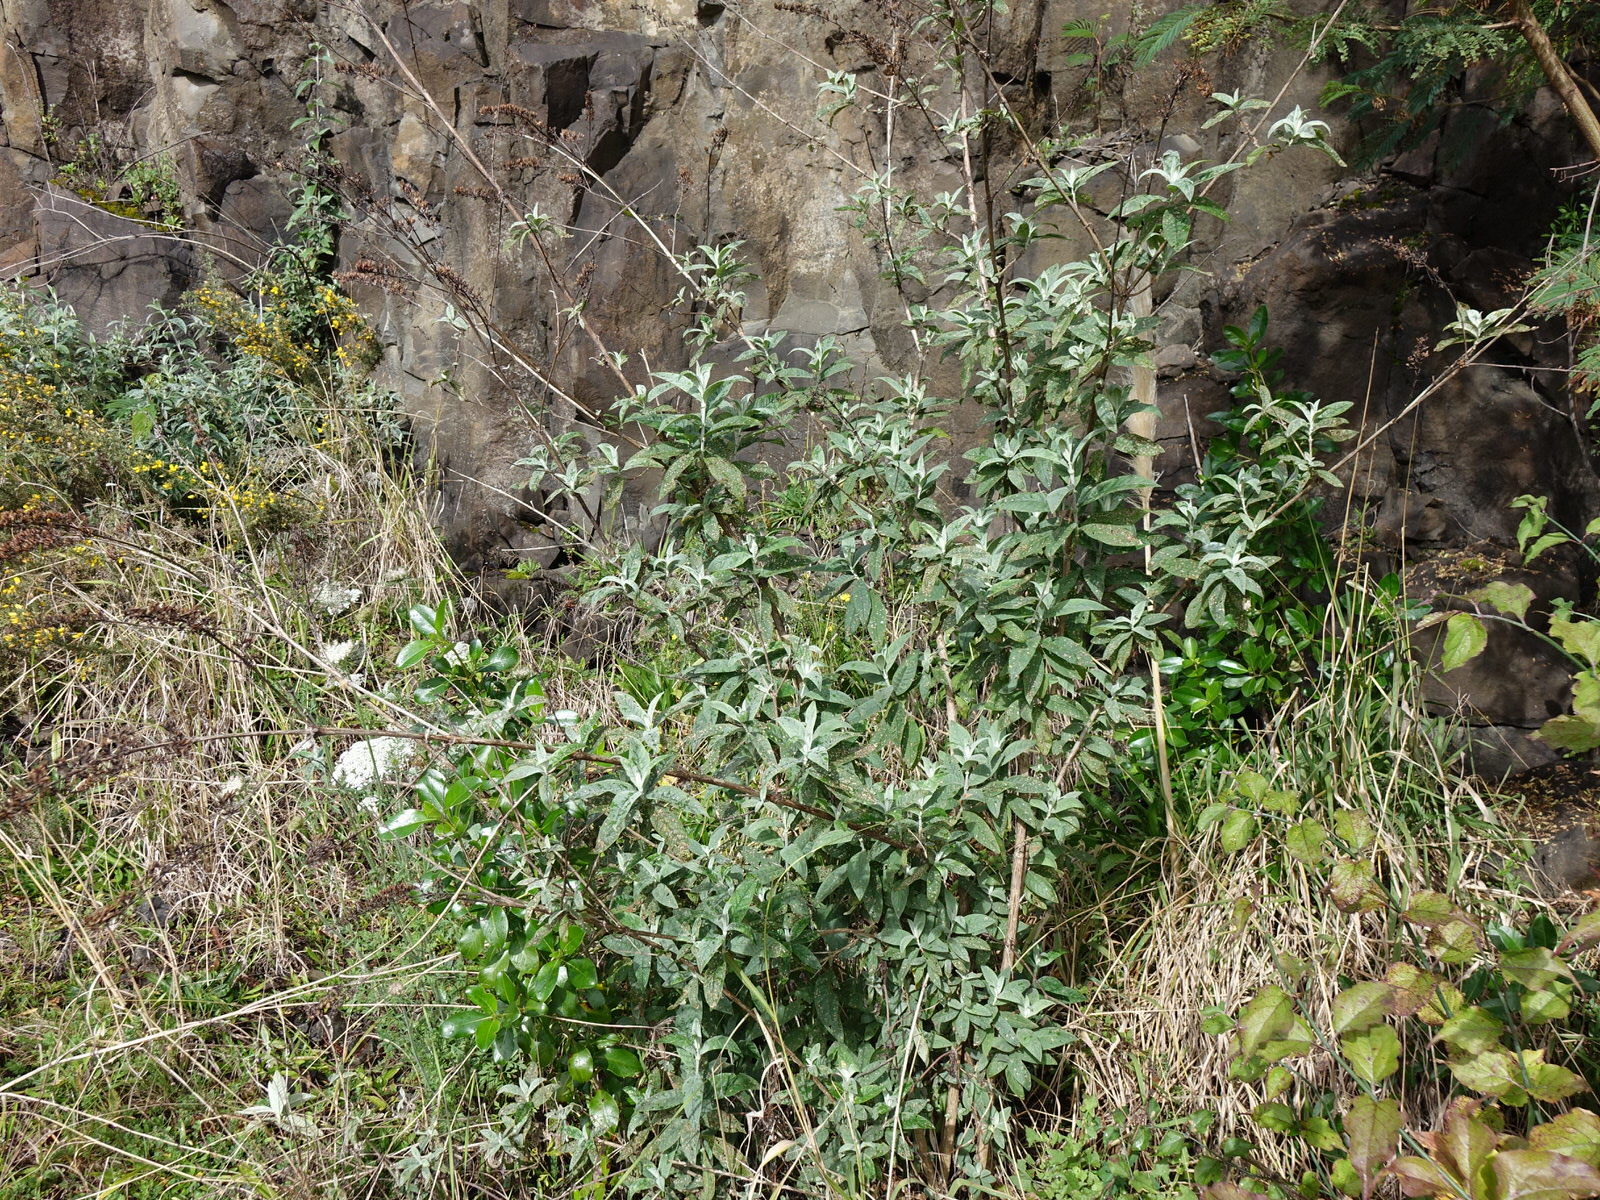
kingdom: Plantae
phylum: Tracheophyta
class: Magnoliopsida
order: Lamiales
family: Scrophulariaceae
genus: Buddleja
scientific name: Buddleja davidii
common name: Butterfly-bush
